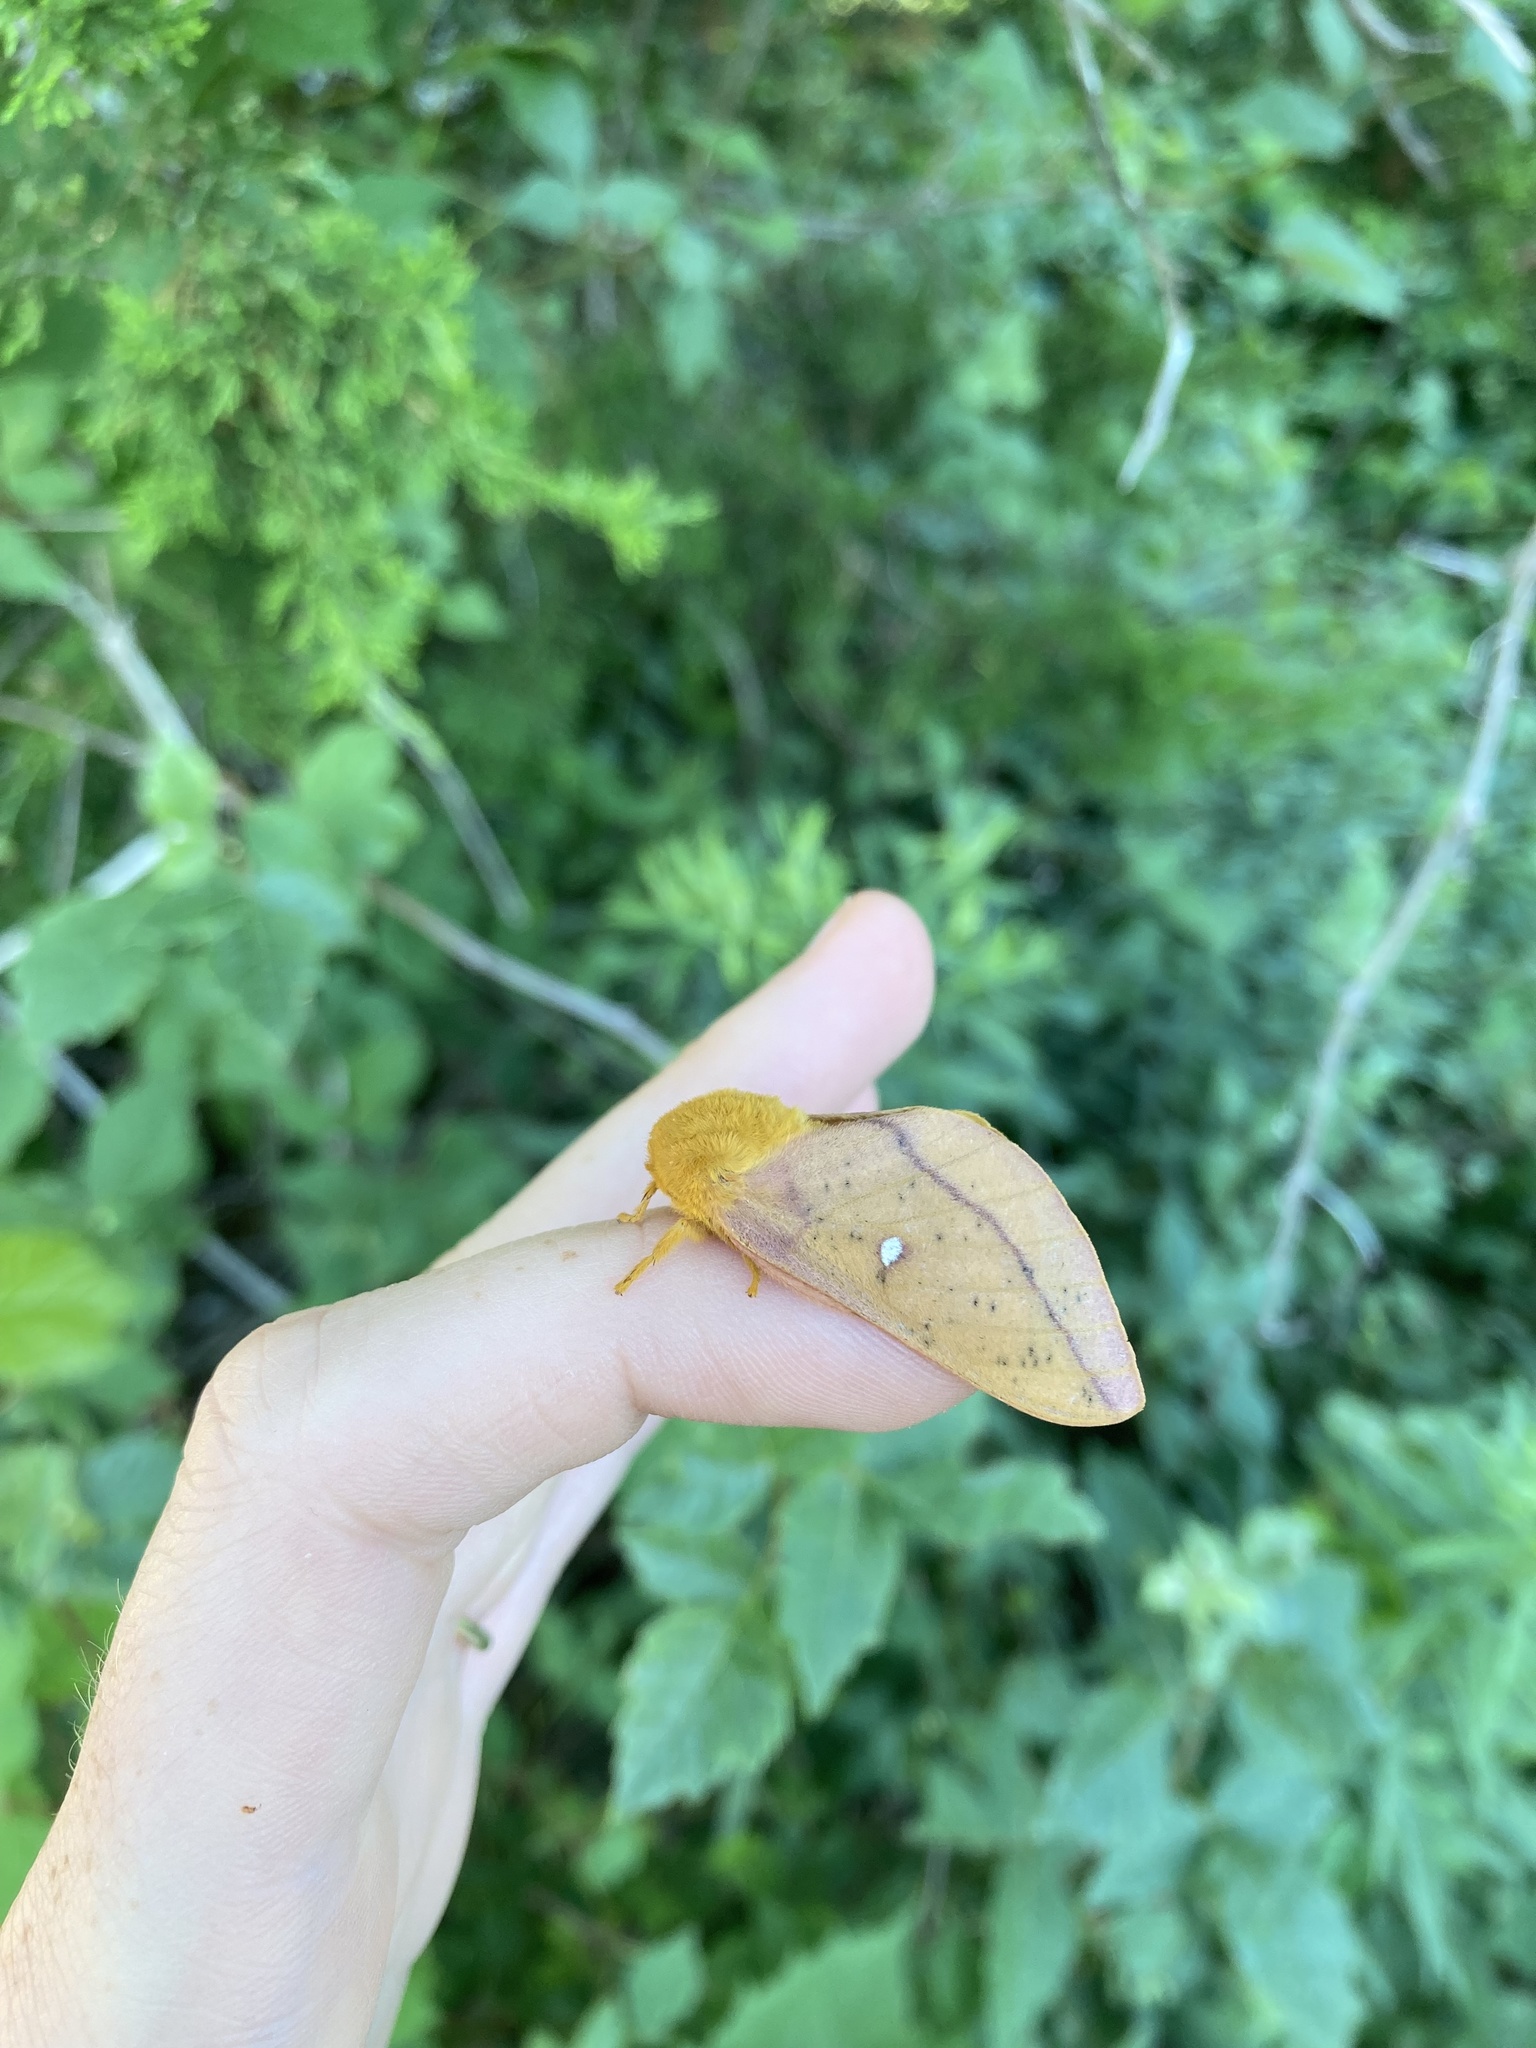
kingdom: Animalia
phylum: Arthropoda
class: Insecta
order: Lepidoptera
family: Saturniidae
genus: Anisota
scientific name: Anisota senatoria
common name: Orange-striped oakworm moth
